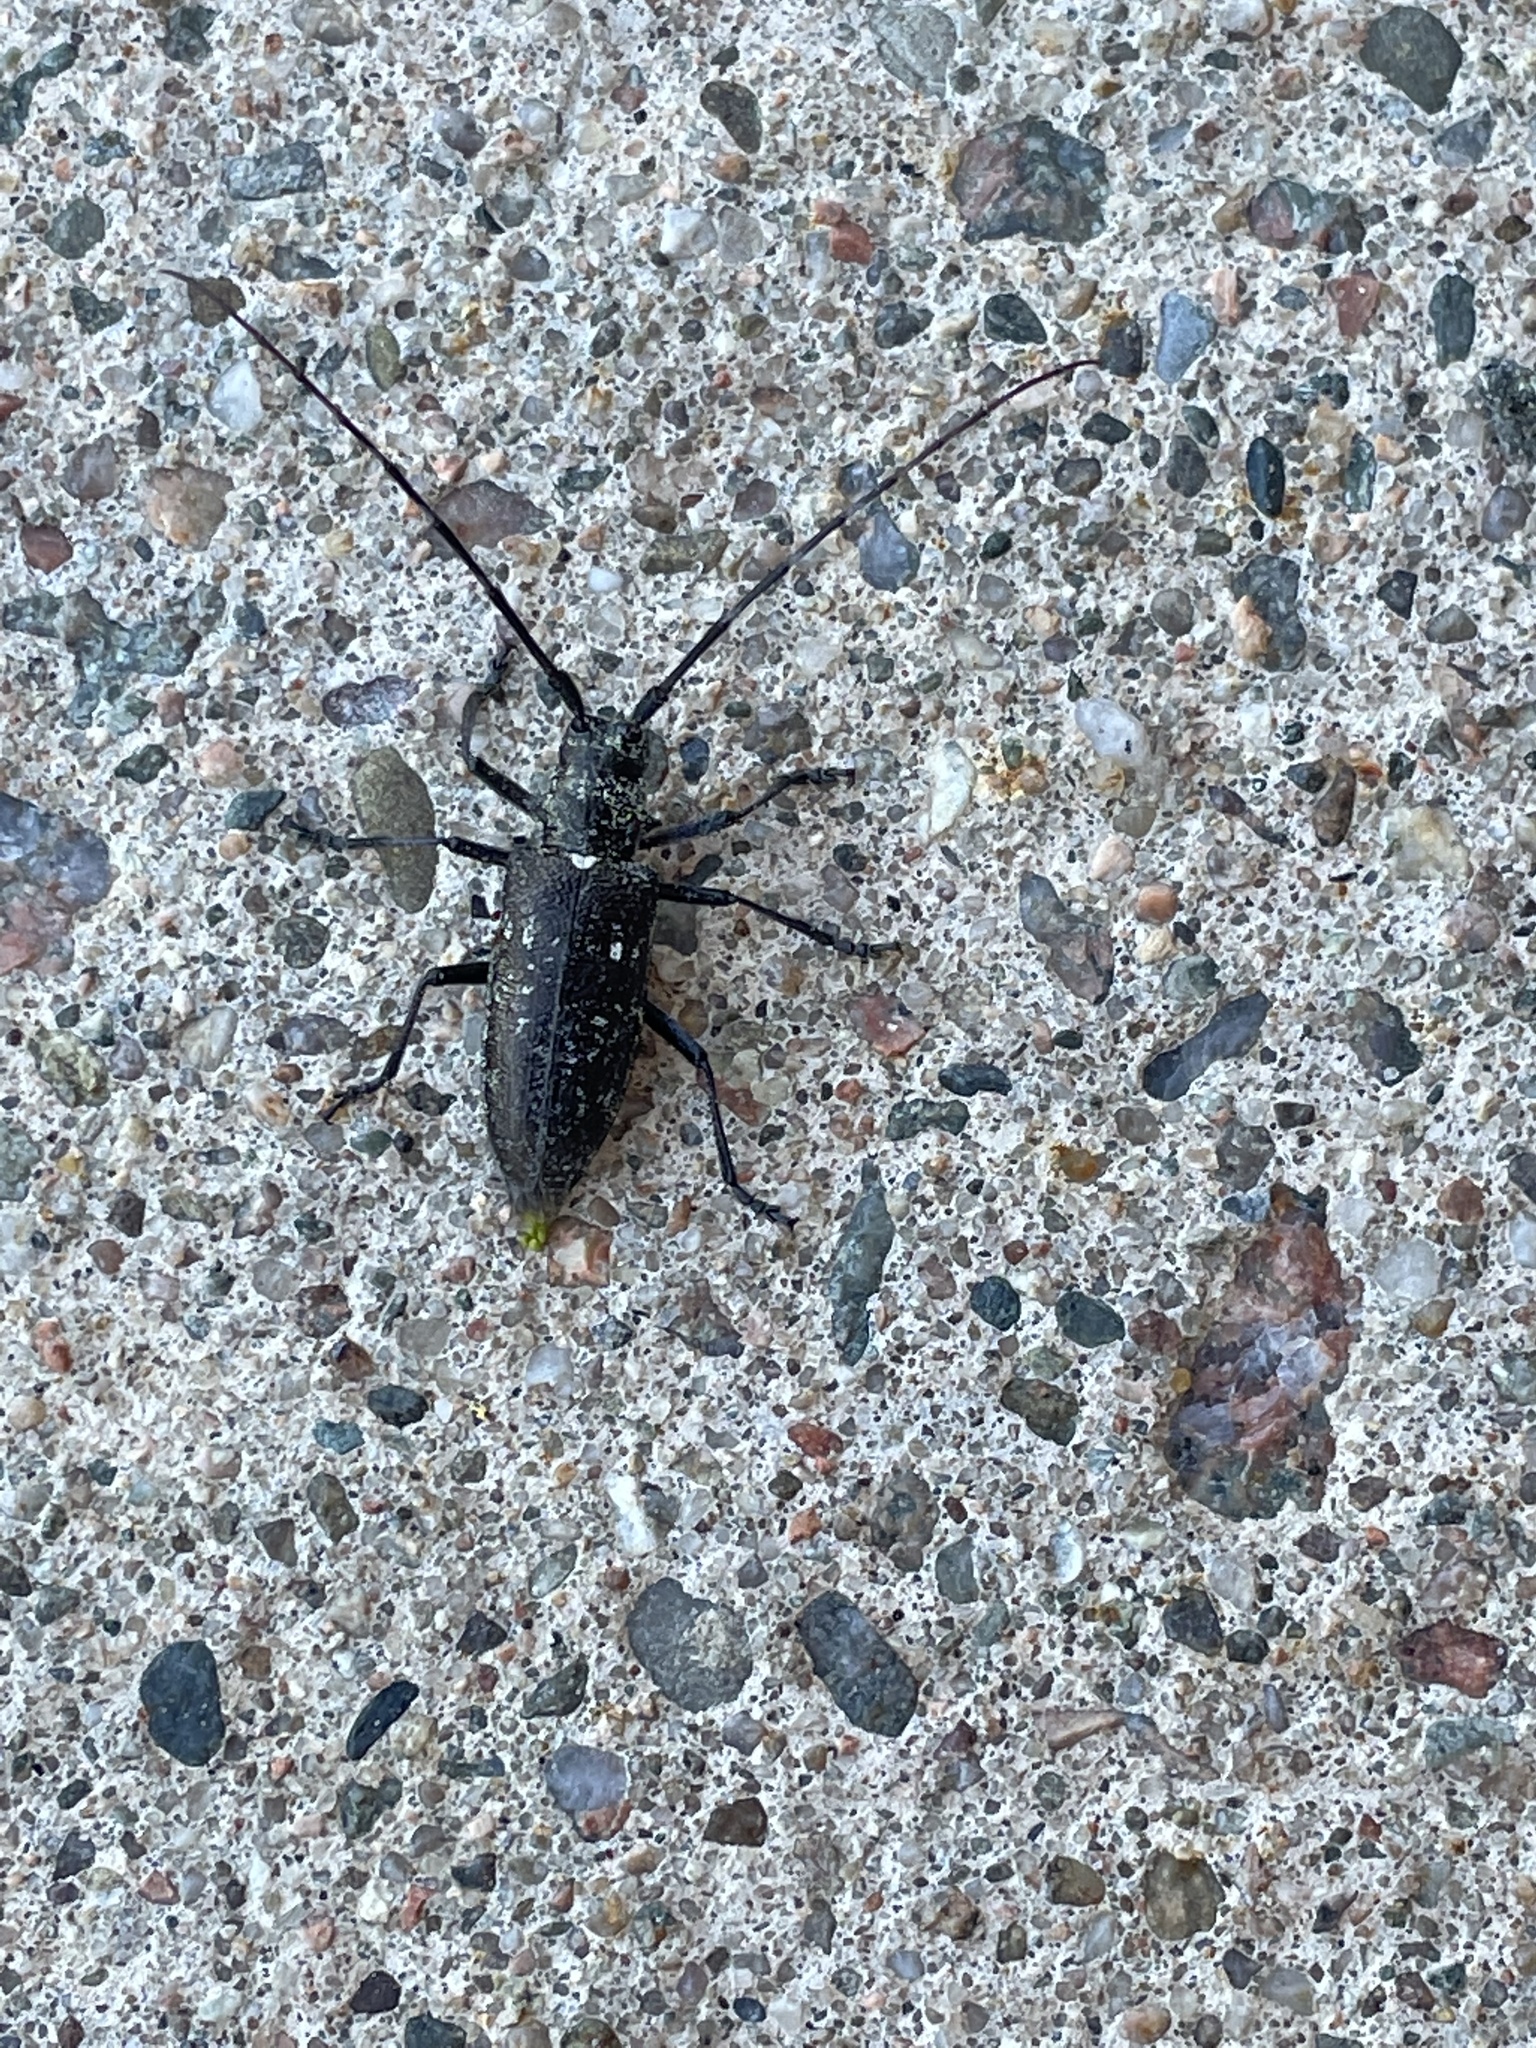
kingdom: Animalia
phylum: Arthropoda
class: Insecta
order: Coleoptera
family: Cerambycidae
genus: Monochamus
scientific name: Monochamus scutellatus
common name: White-spotted sawyer beetle
